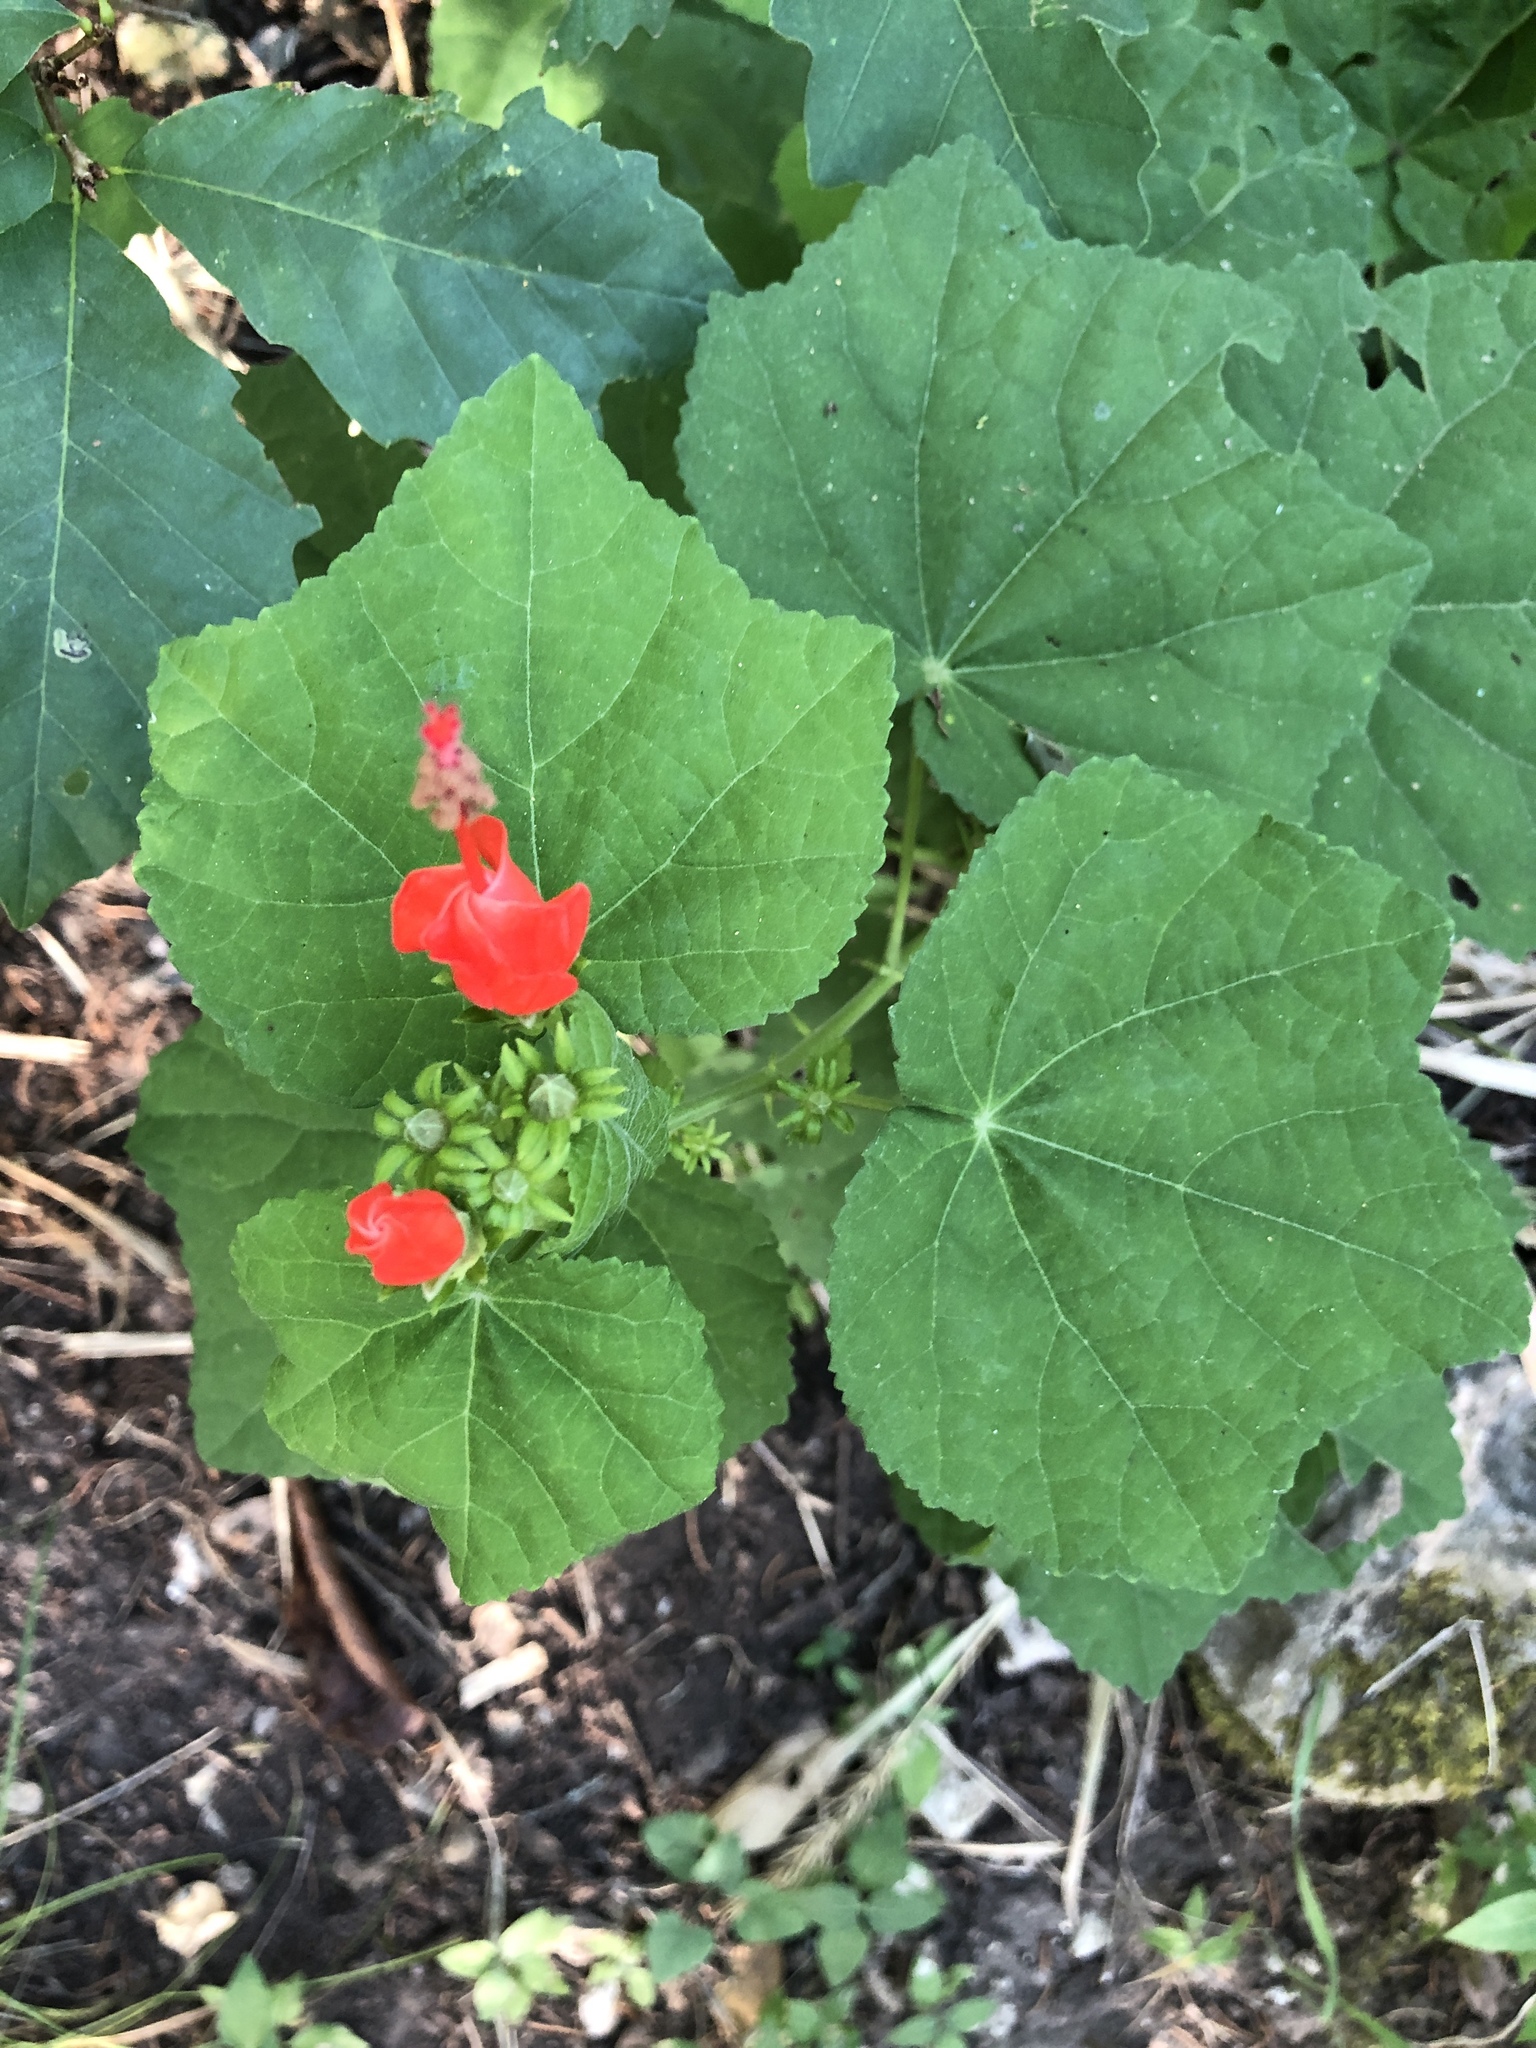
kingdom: Plantae
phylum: Tracheophyta
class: Magnoliopsida
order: Malvales
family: Malvaceae
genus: Malvaviscus
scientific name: Malvaviscus arboreus
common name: Wax mallow
